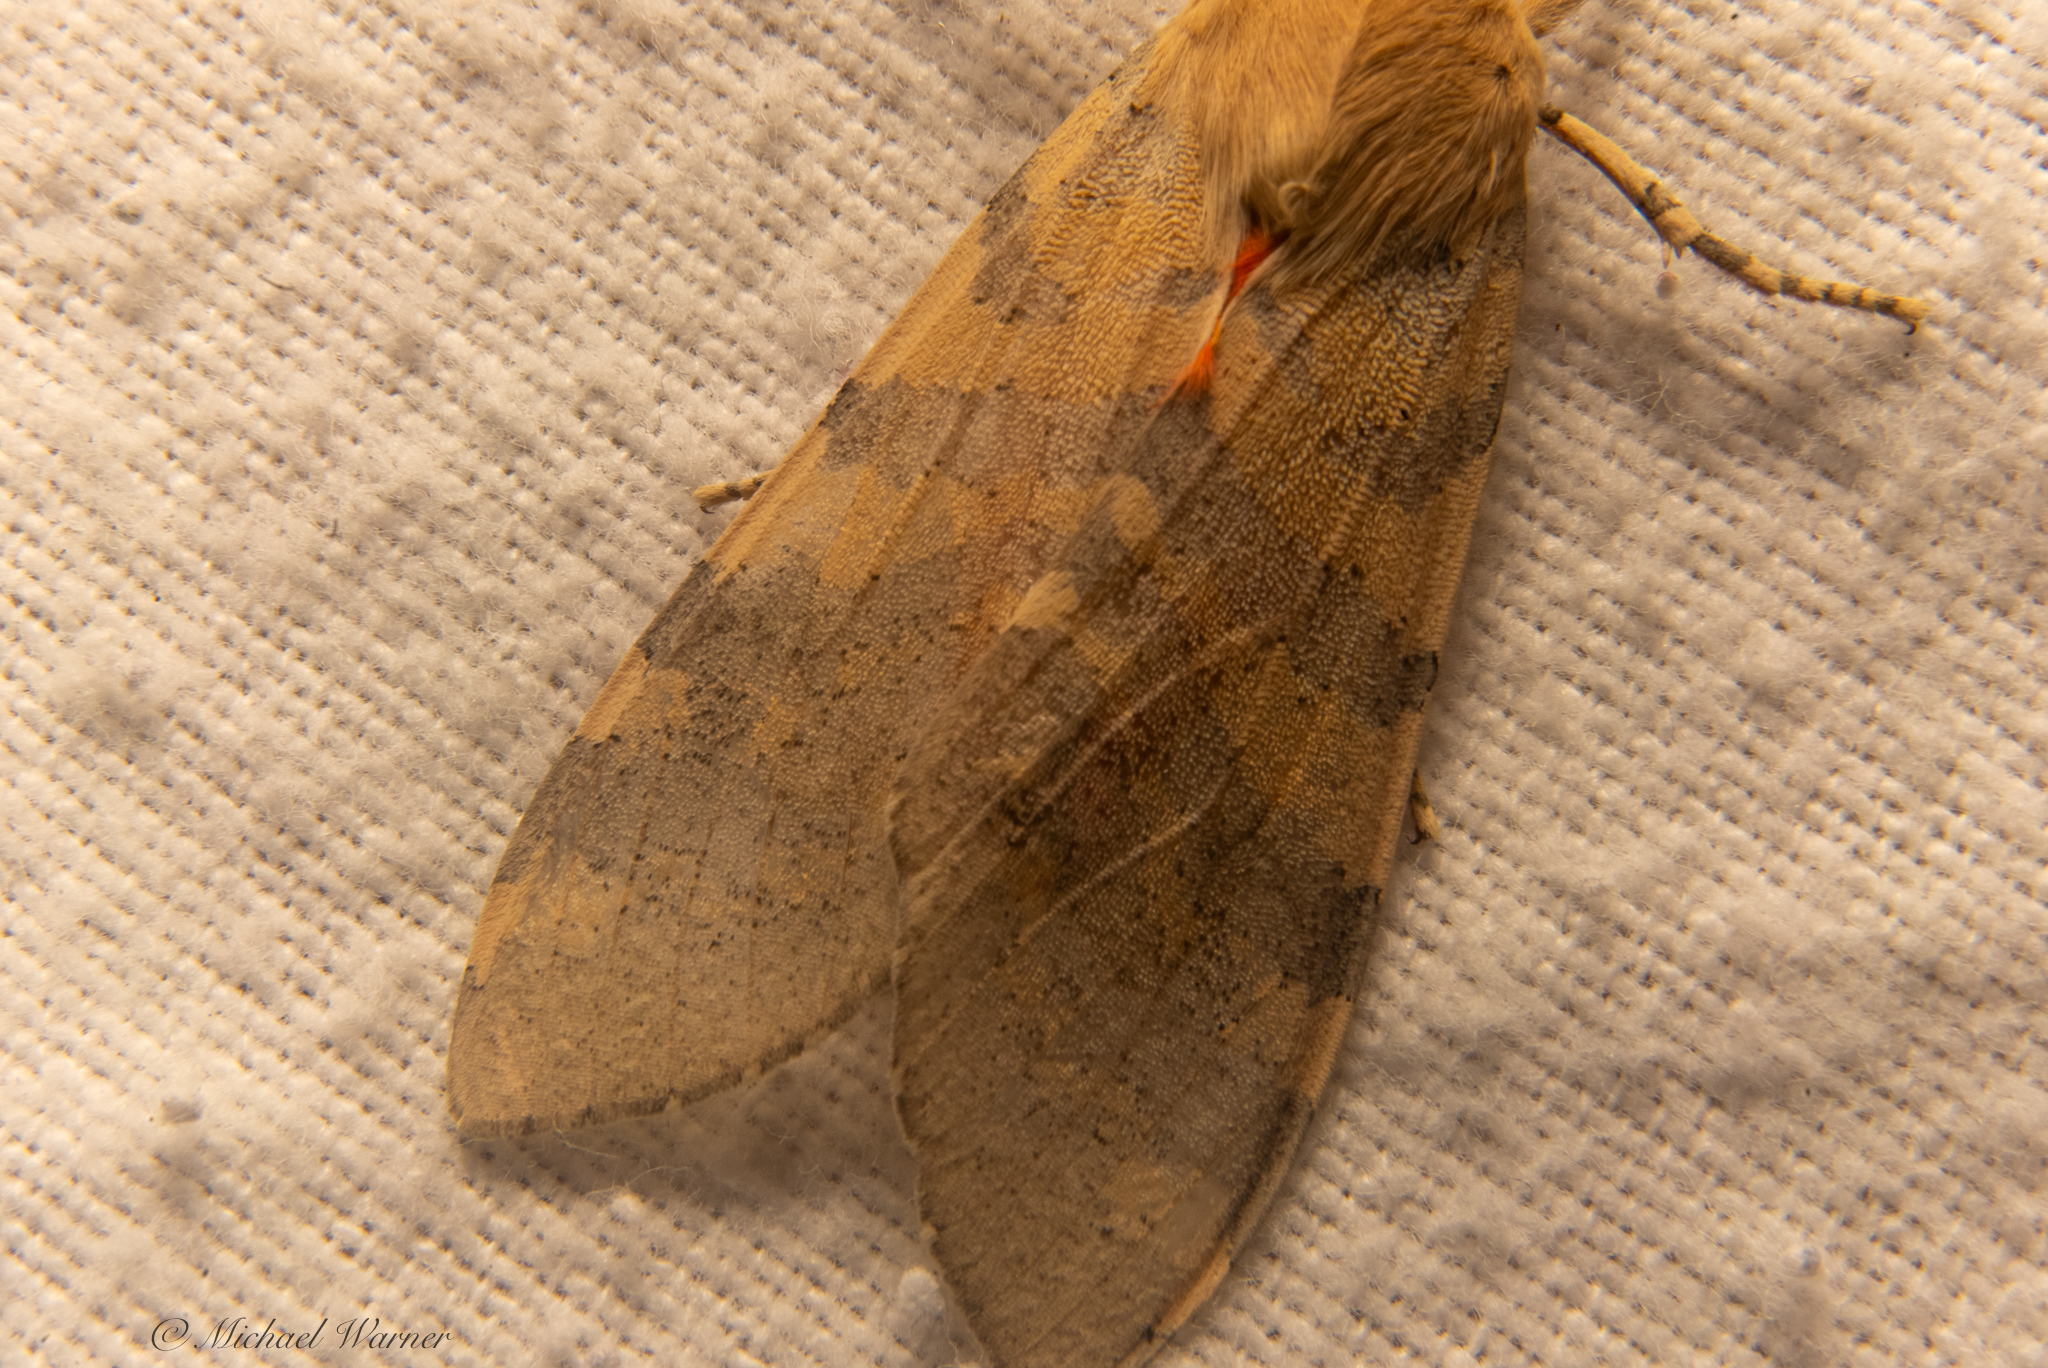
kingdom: Animalia
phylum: Arthropoda
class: Insecta
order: Lepidoptera
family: Erebidae
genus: Hemihyalea
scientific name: Hemihyalea edwardsii
